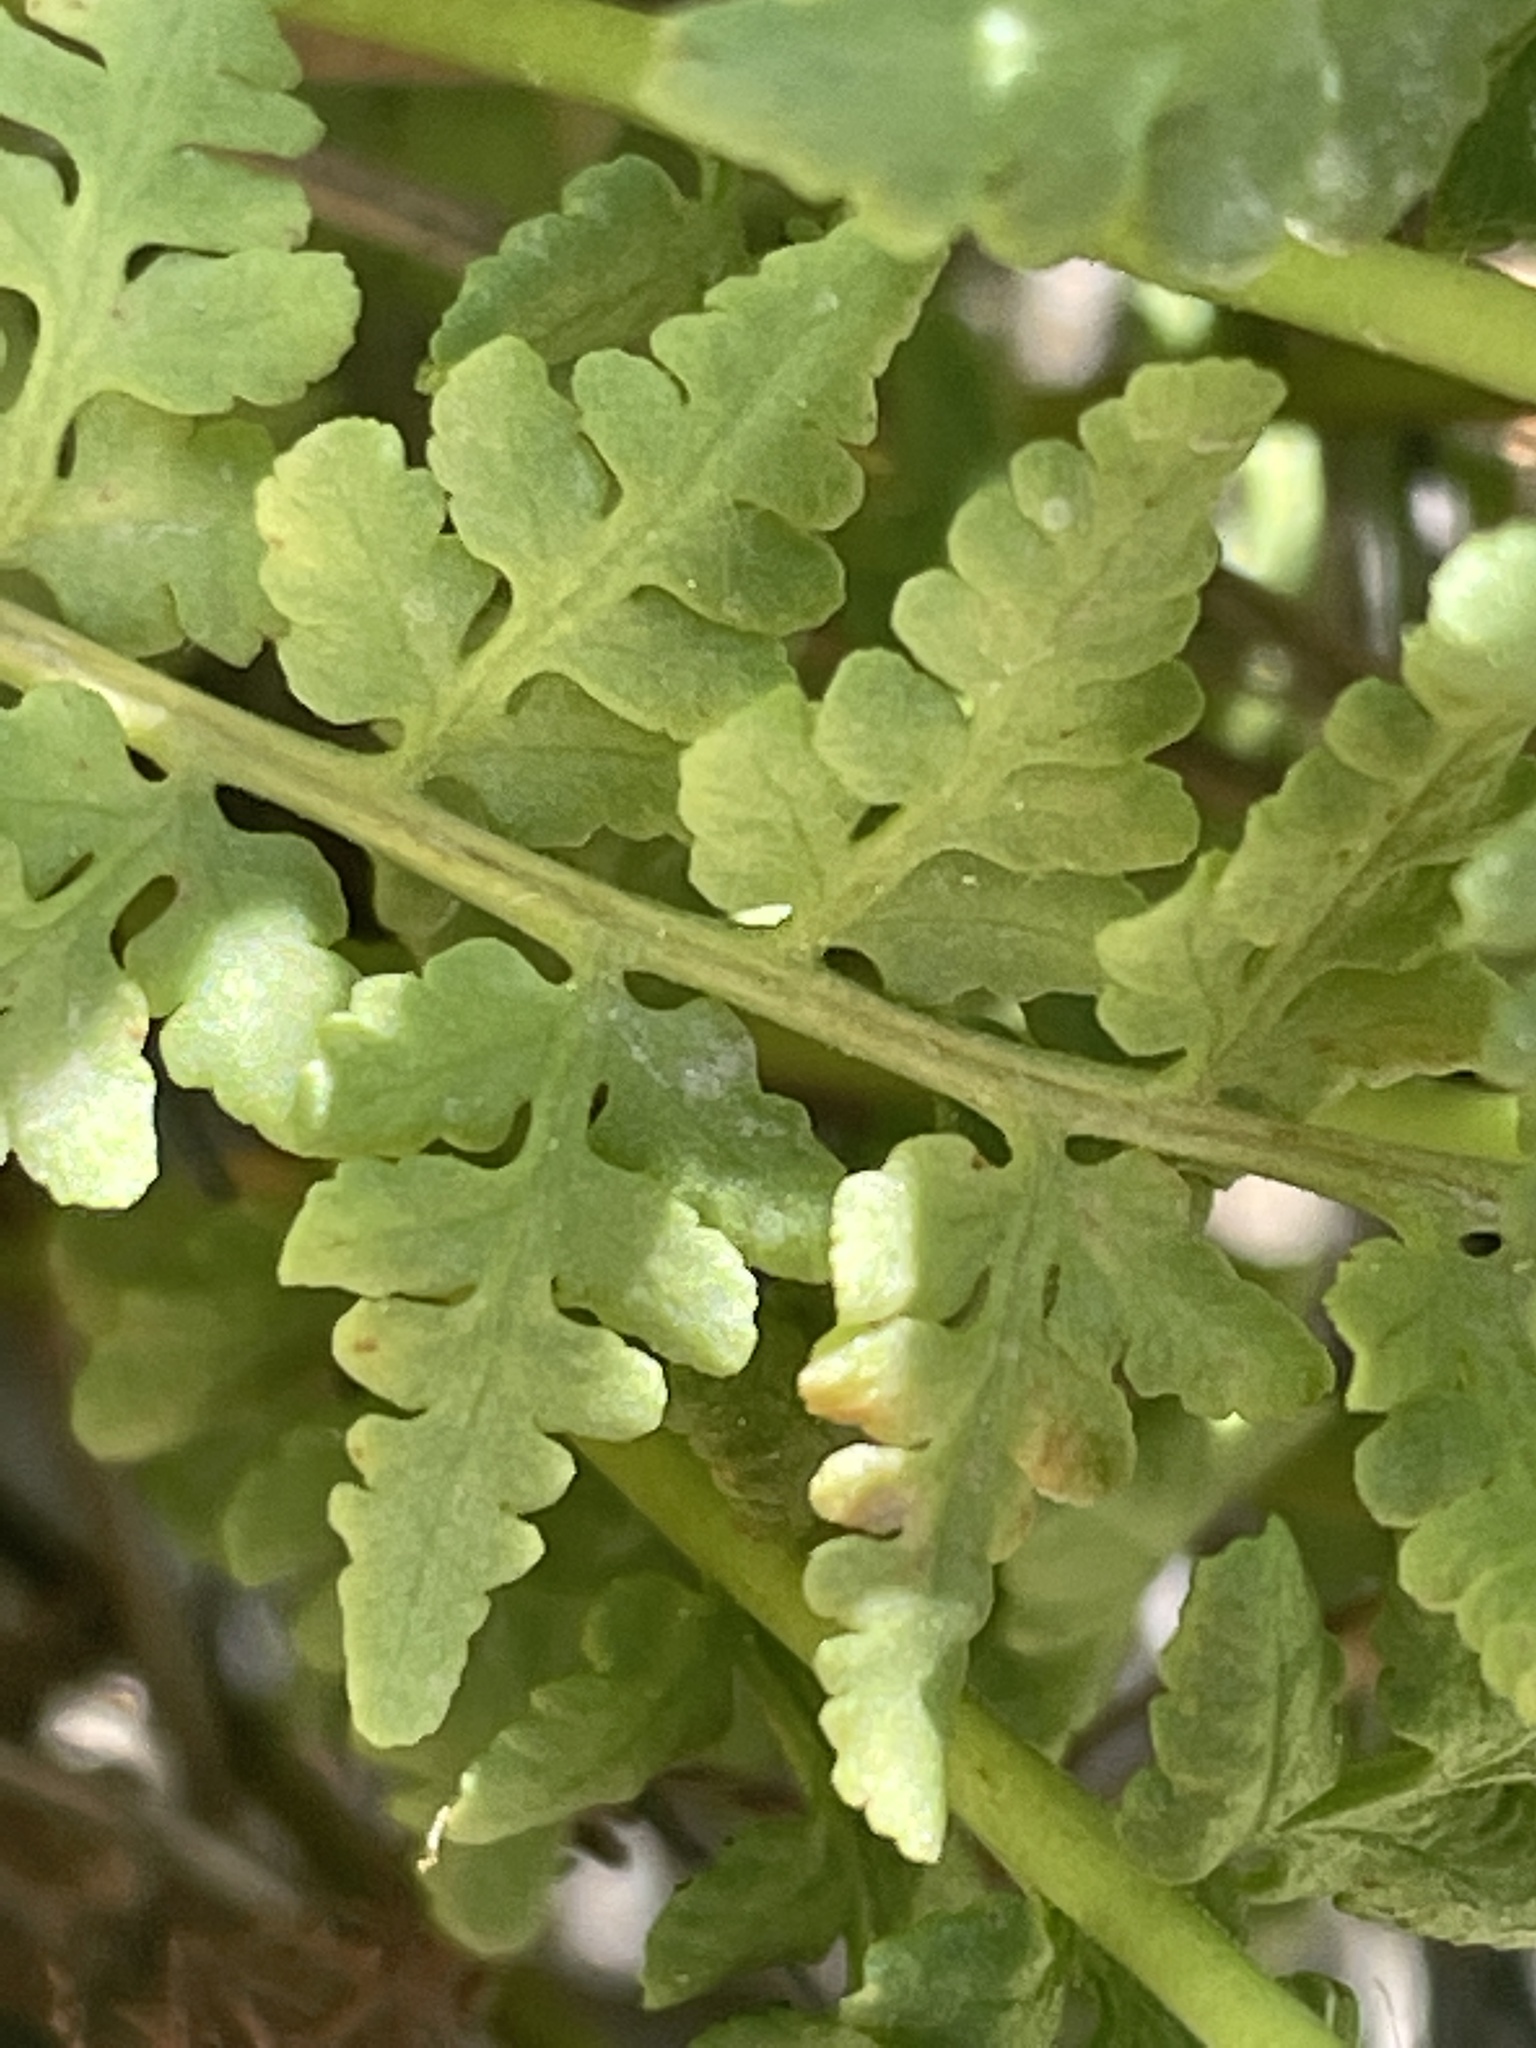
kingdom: Plantae
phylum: Tracheophyta
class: Polypodiopsida
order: Polypodiales
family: Woodsiaceae
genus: Physematium
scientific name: Physematium oreganum
